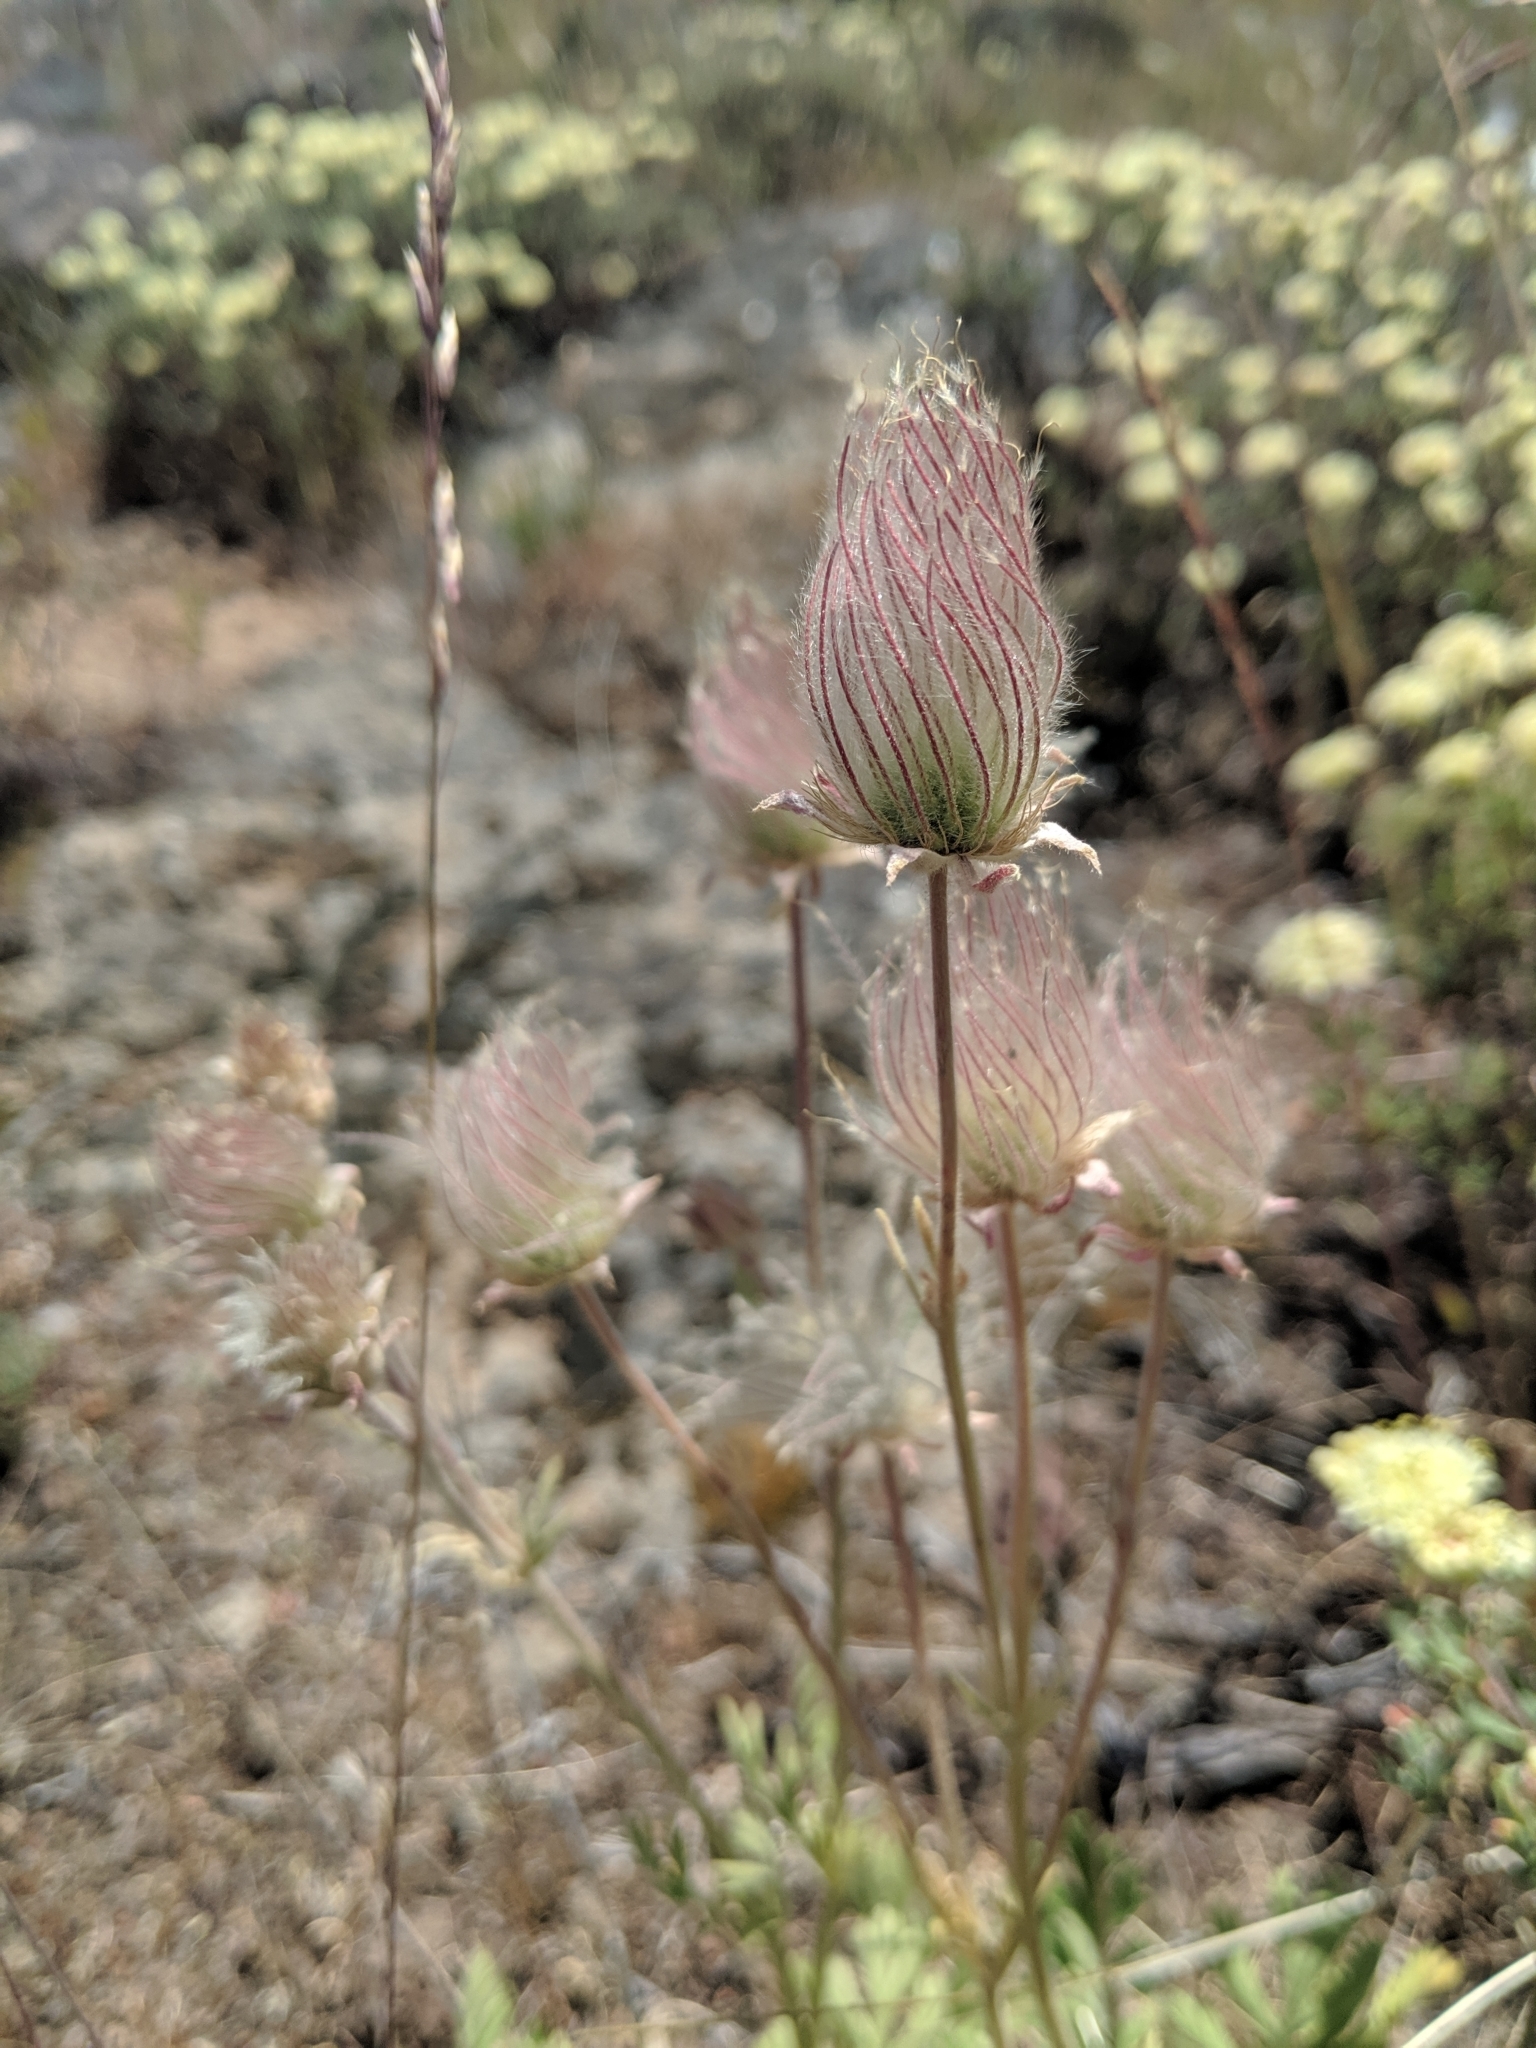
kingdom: Plantae
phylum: Tracheophyta
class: Magnoliopsida
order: Rosales
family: Rosaceae
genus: Geum
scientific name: Geum triflorum
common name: Old man's whiskers
